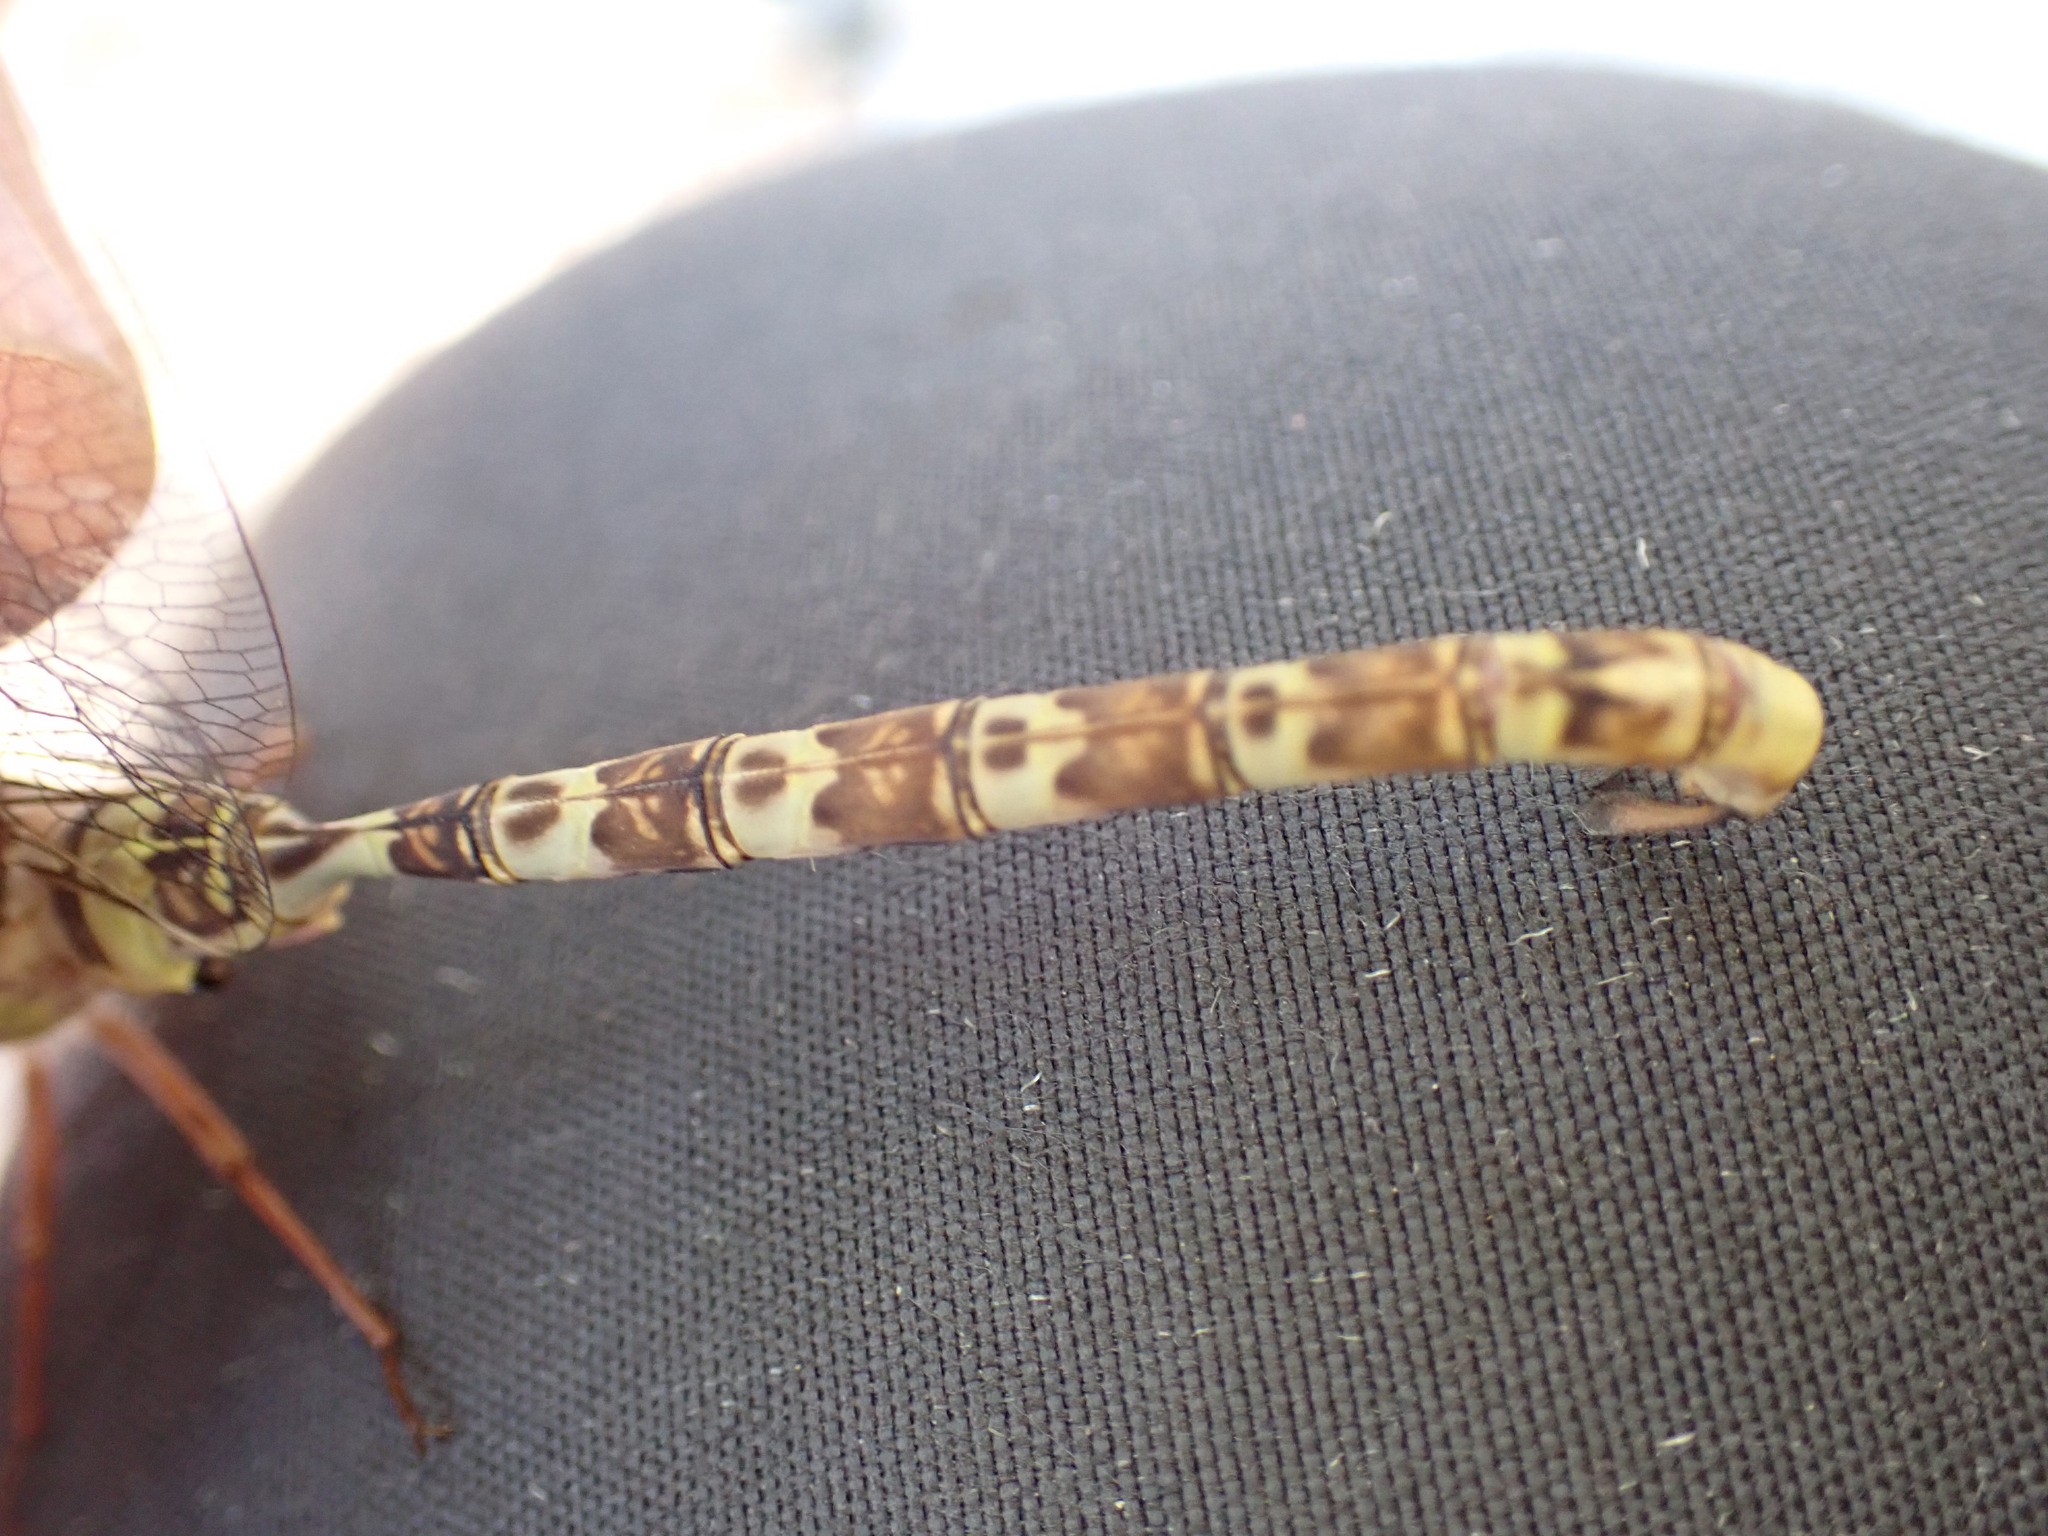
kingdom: Animalia
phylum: Arthropoda
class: Insecta
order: Odonata
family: Aeshnidae
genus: Boyeria
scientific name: Boyeria irene
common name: Western spectre
